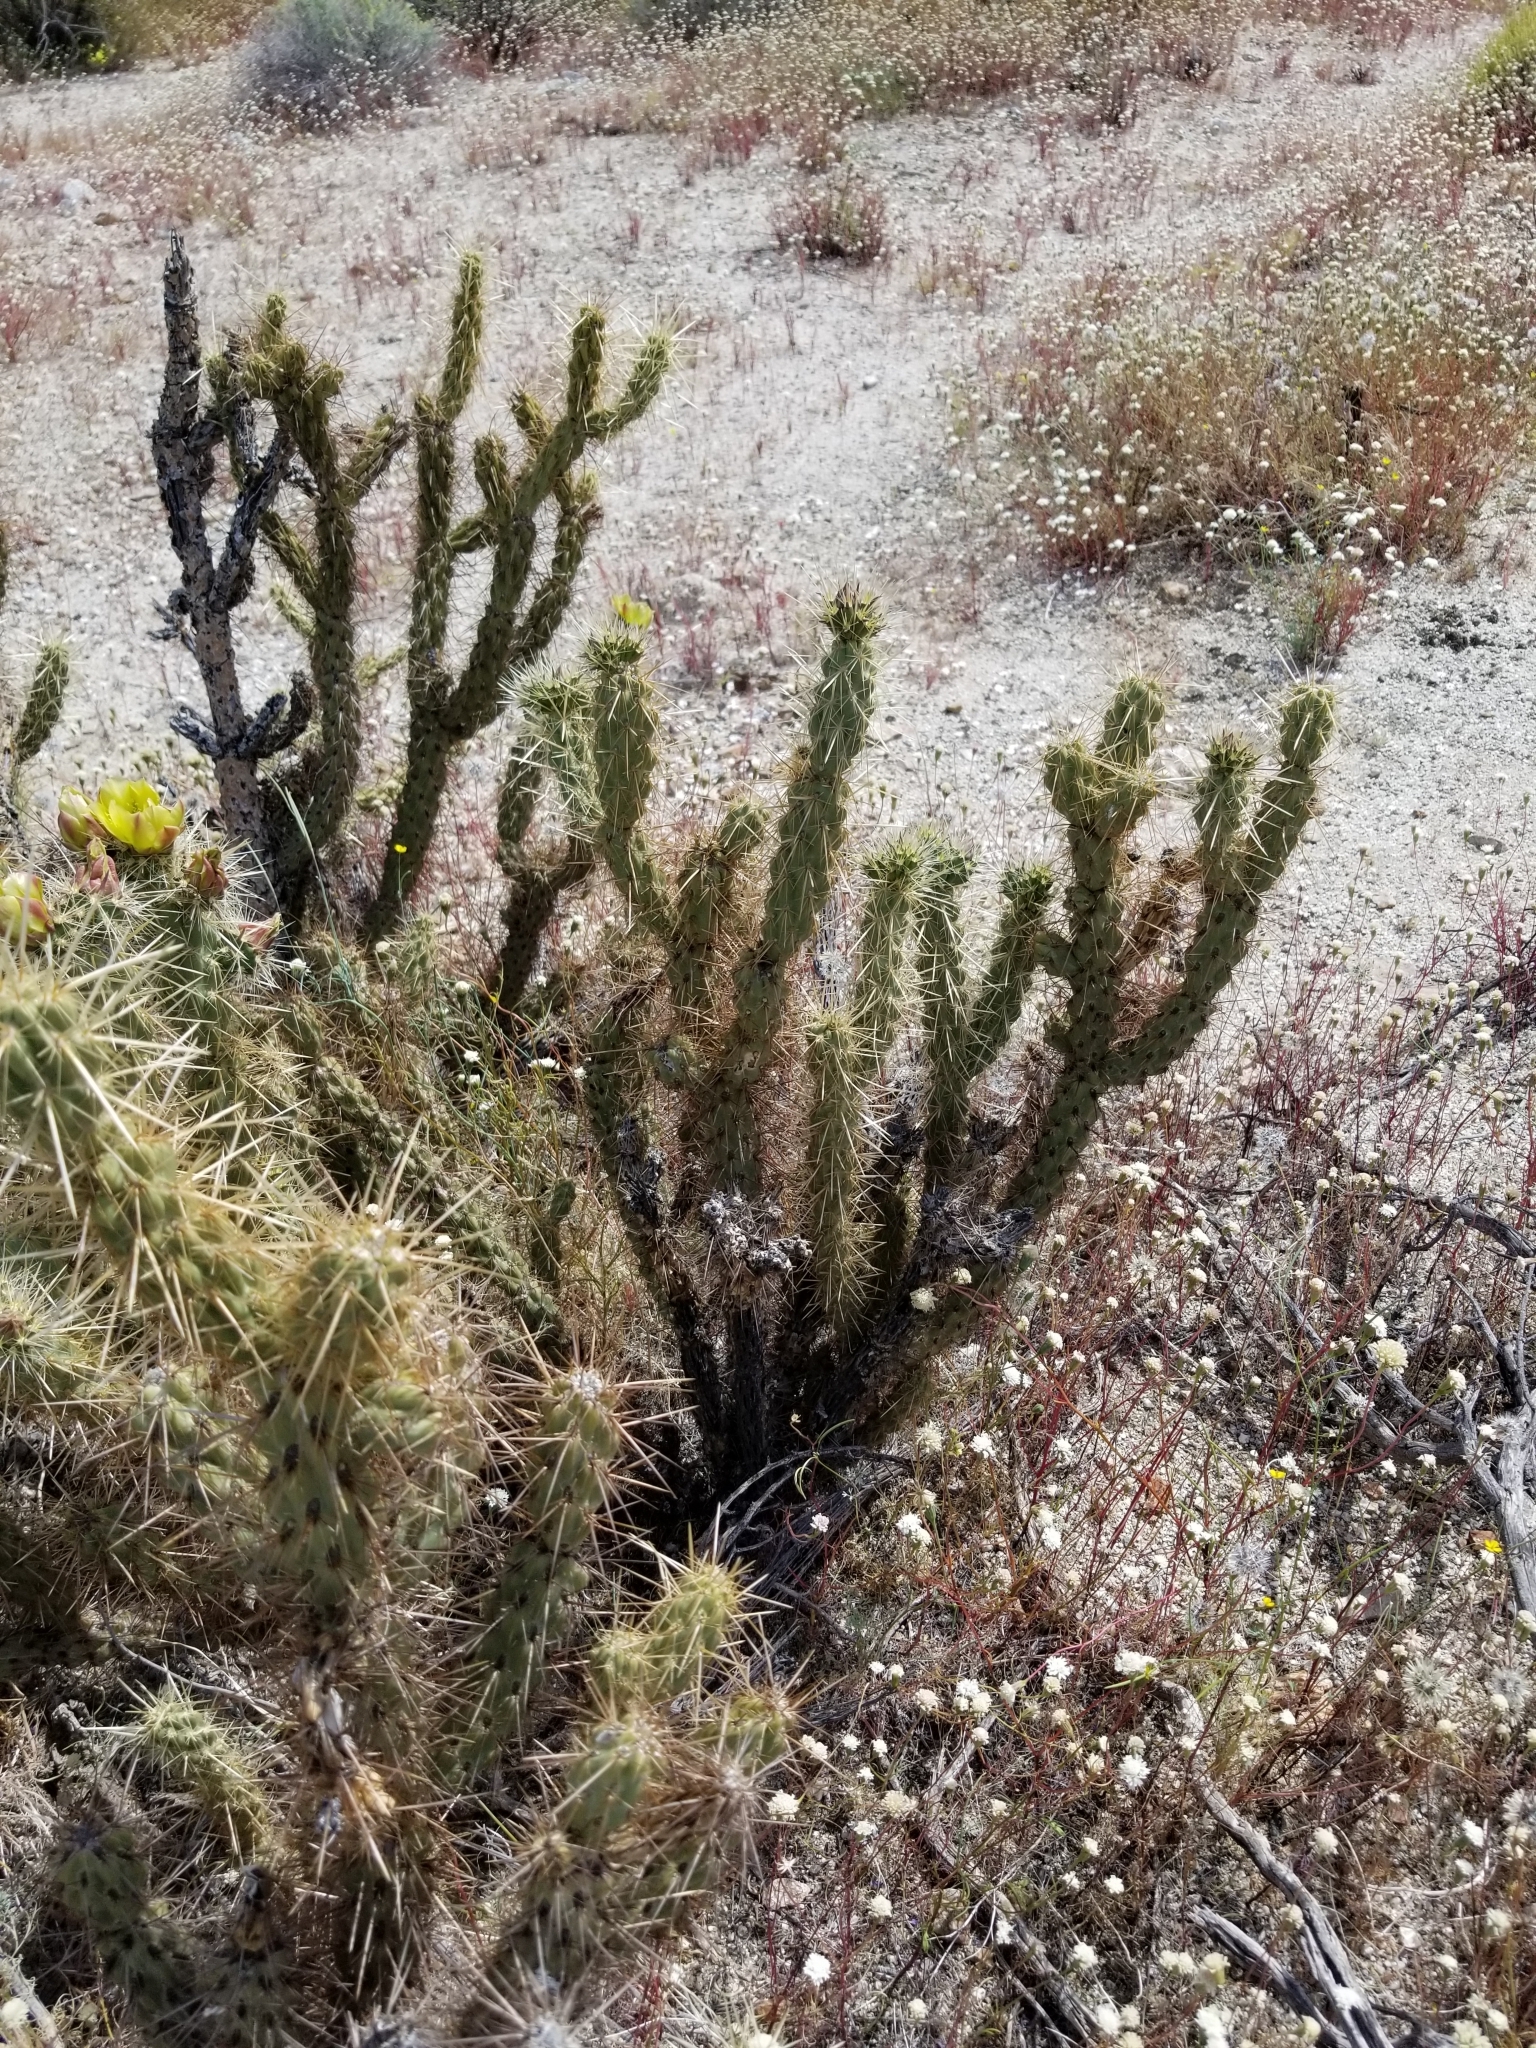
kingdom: Plantae
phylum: Tracheophyta
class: Magnoliopsida
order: Caryophyllales
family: Cactaceae
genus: Cylindropuntia
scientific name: Cylindropuntia ganderi
